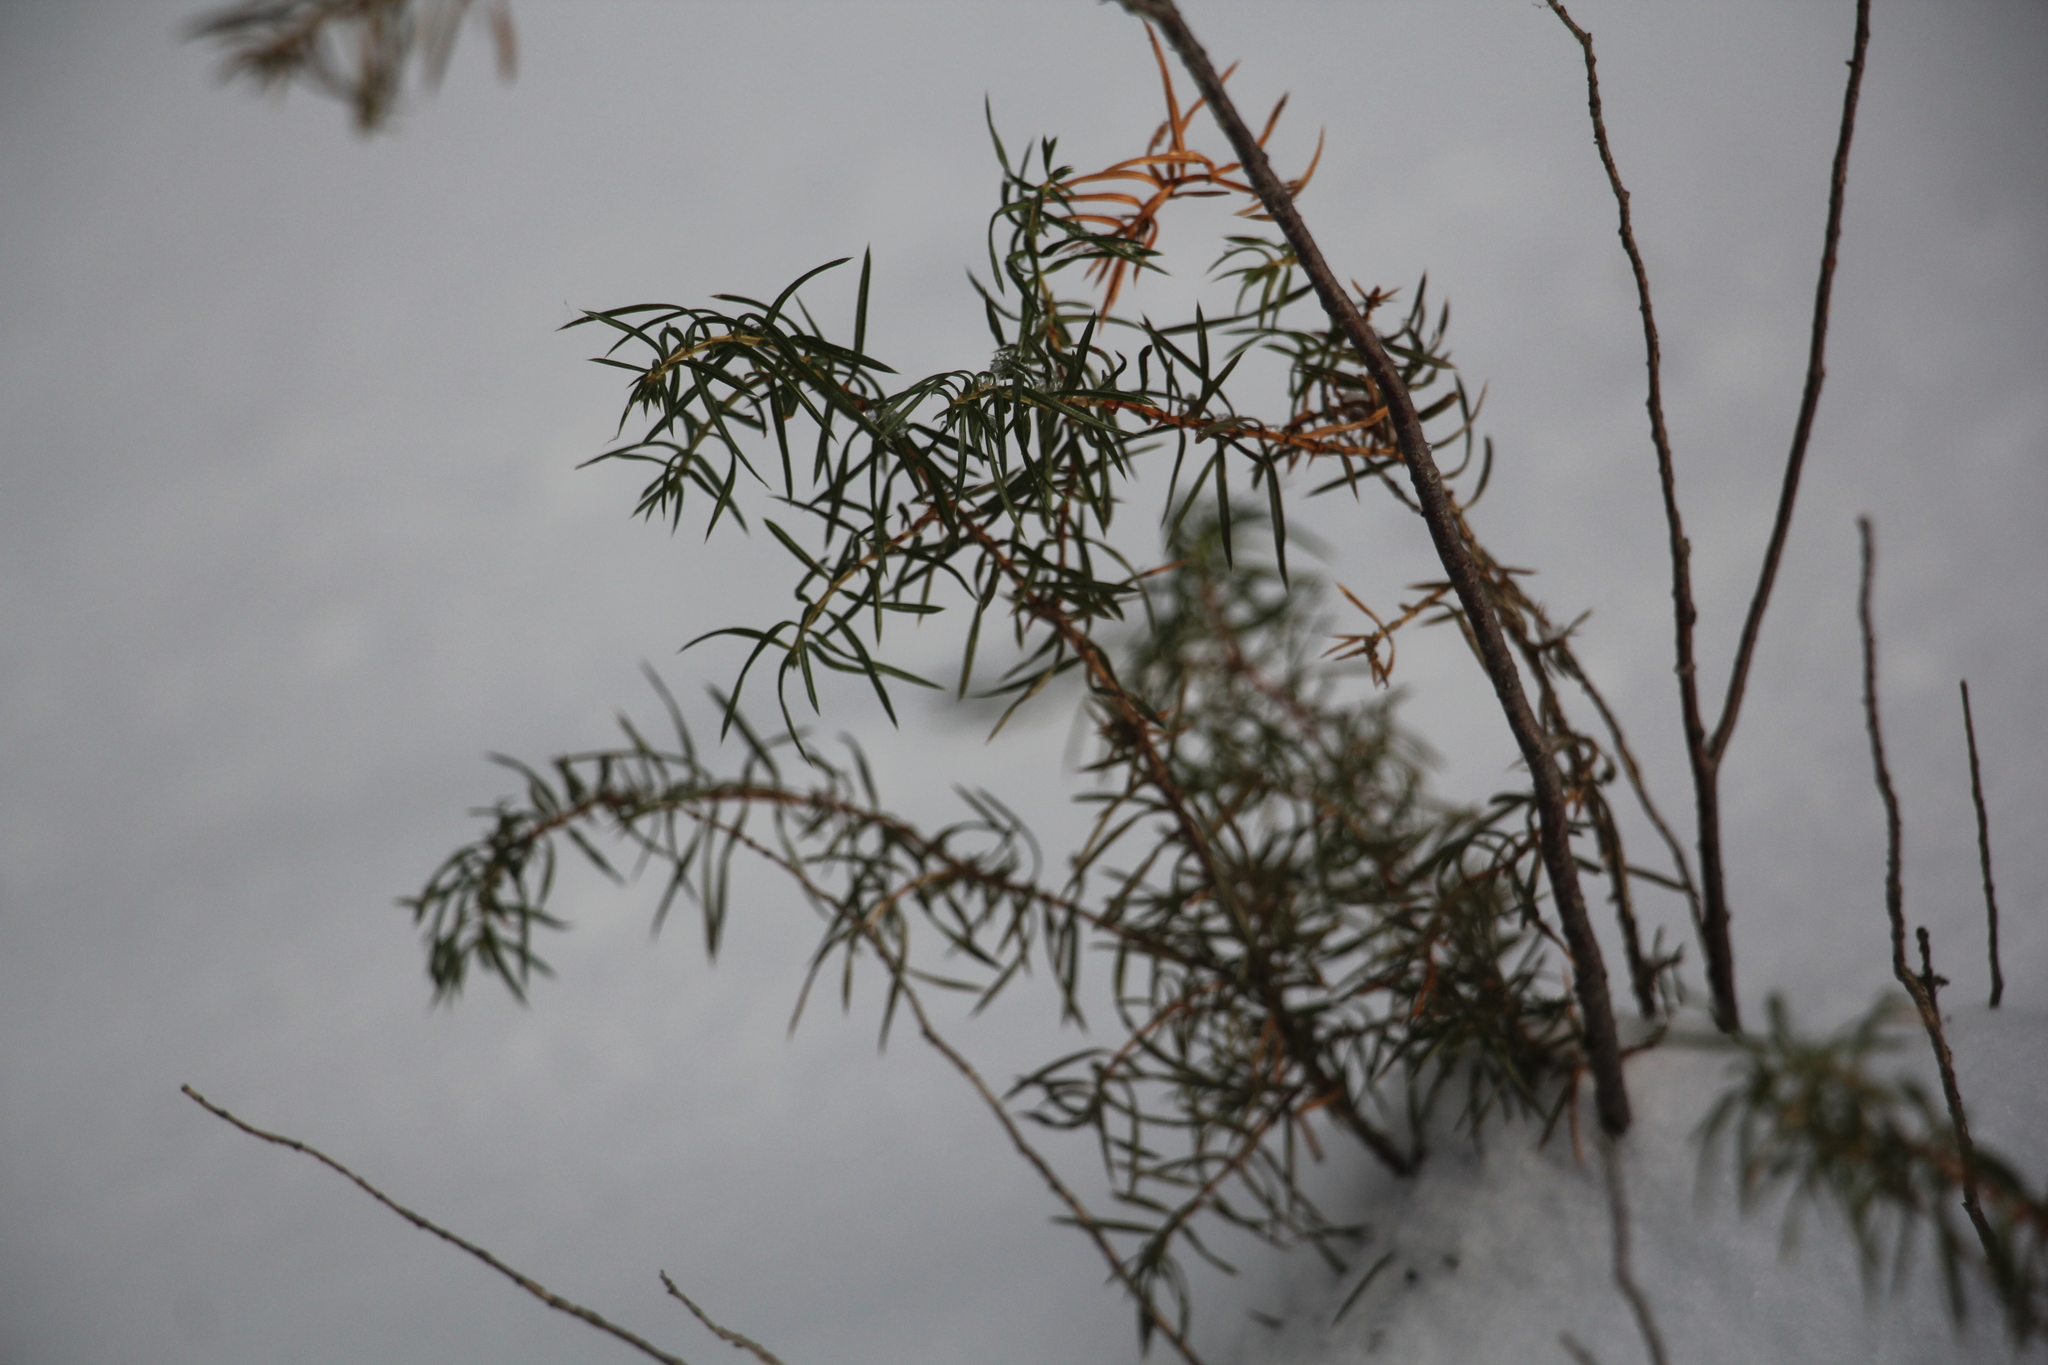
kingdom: Plantae
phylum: Tracheophyta
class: Pinopsida
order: Pinales
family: Cupressaceae
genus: Juniperus
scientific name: Juniperus communis
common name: Common juniper
